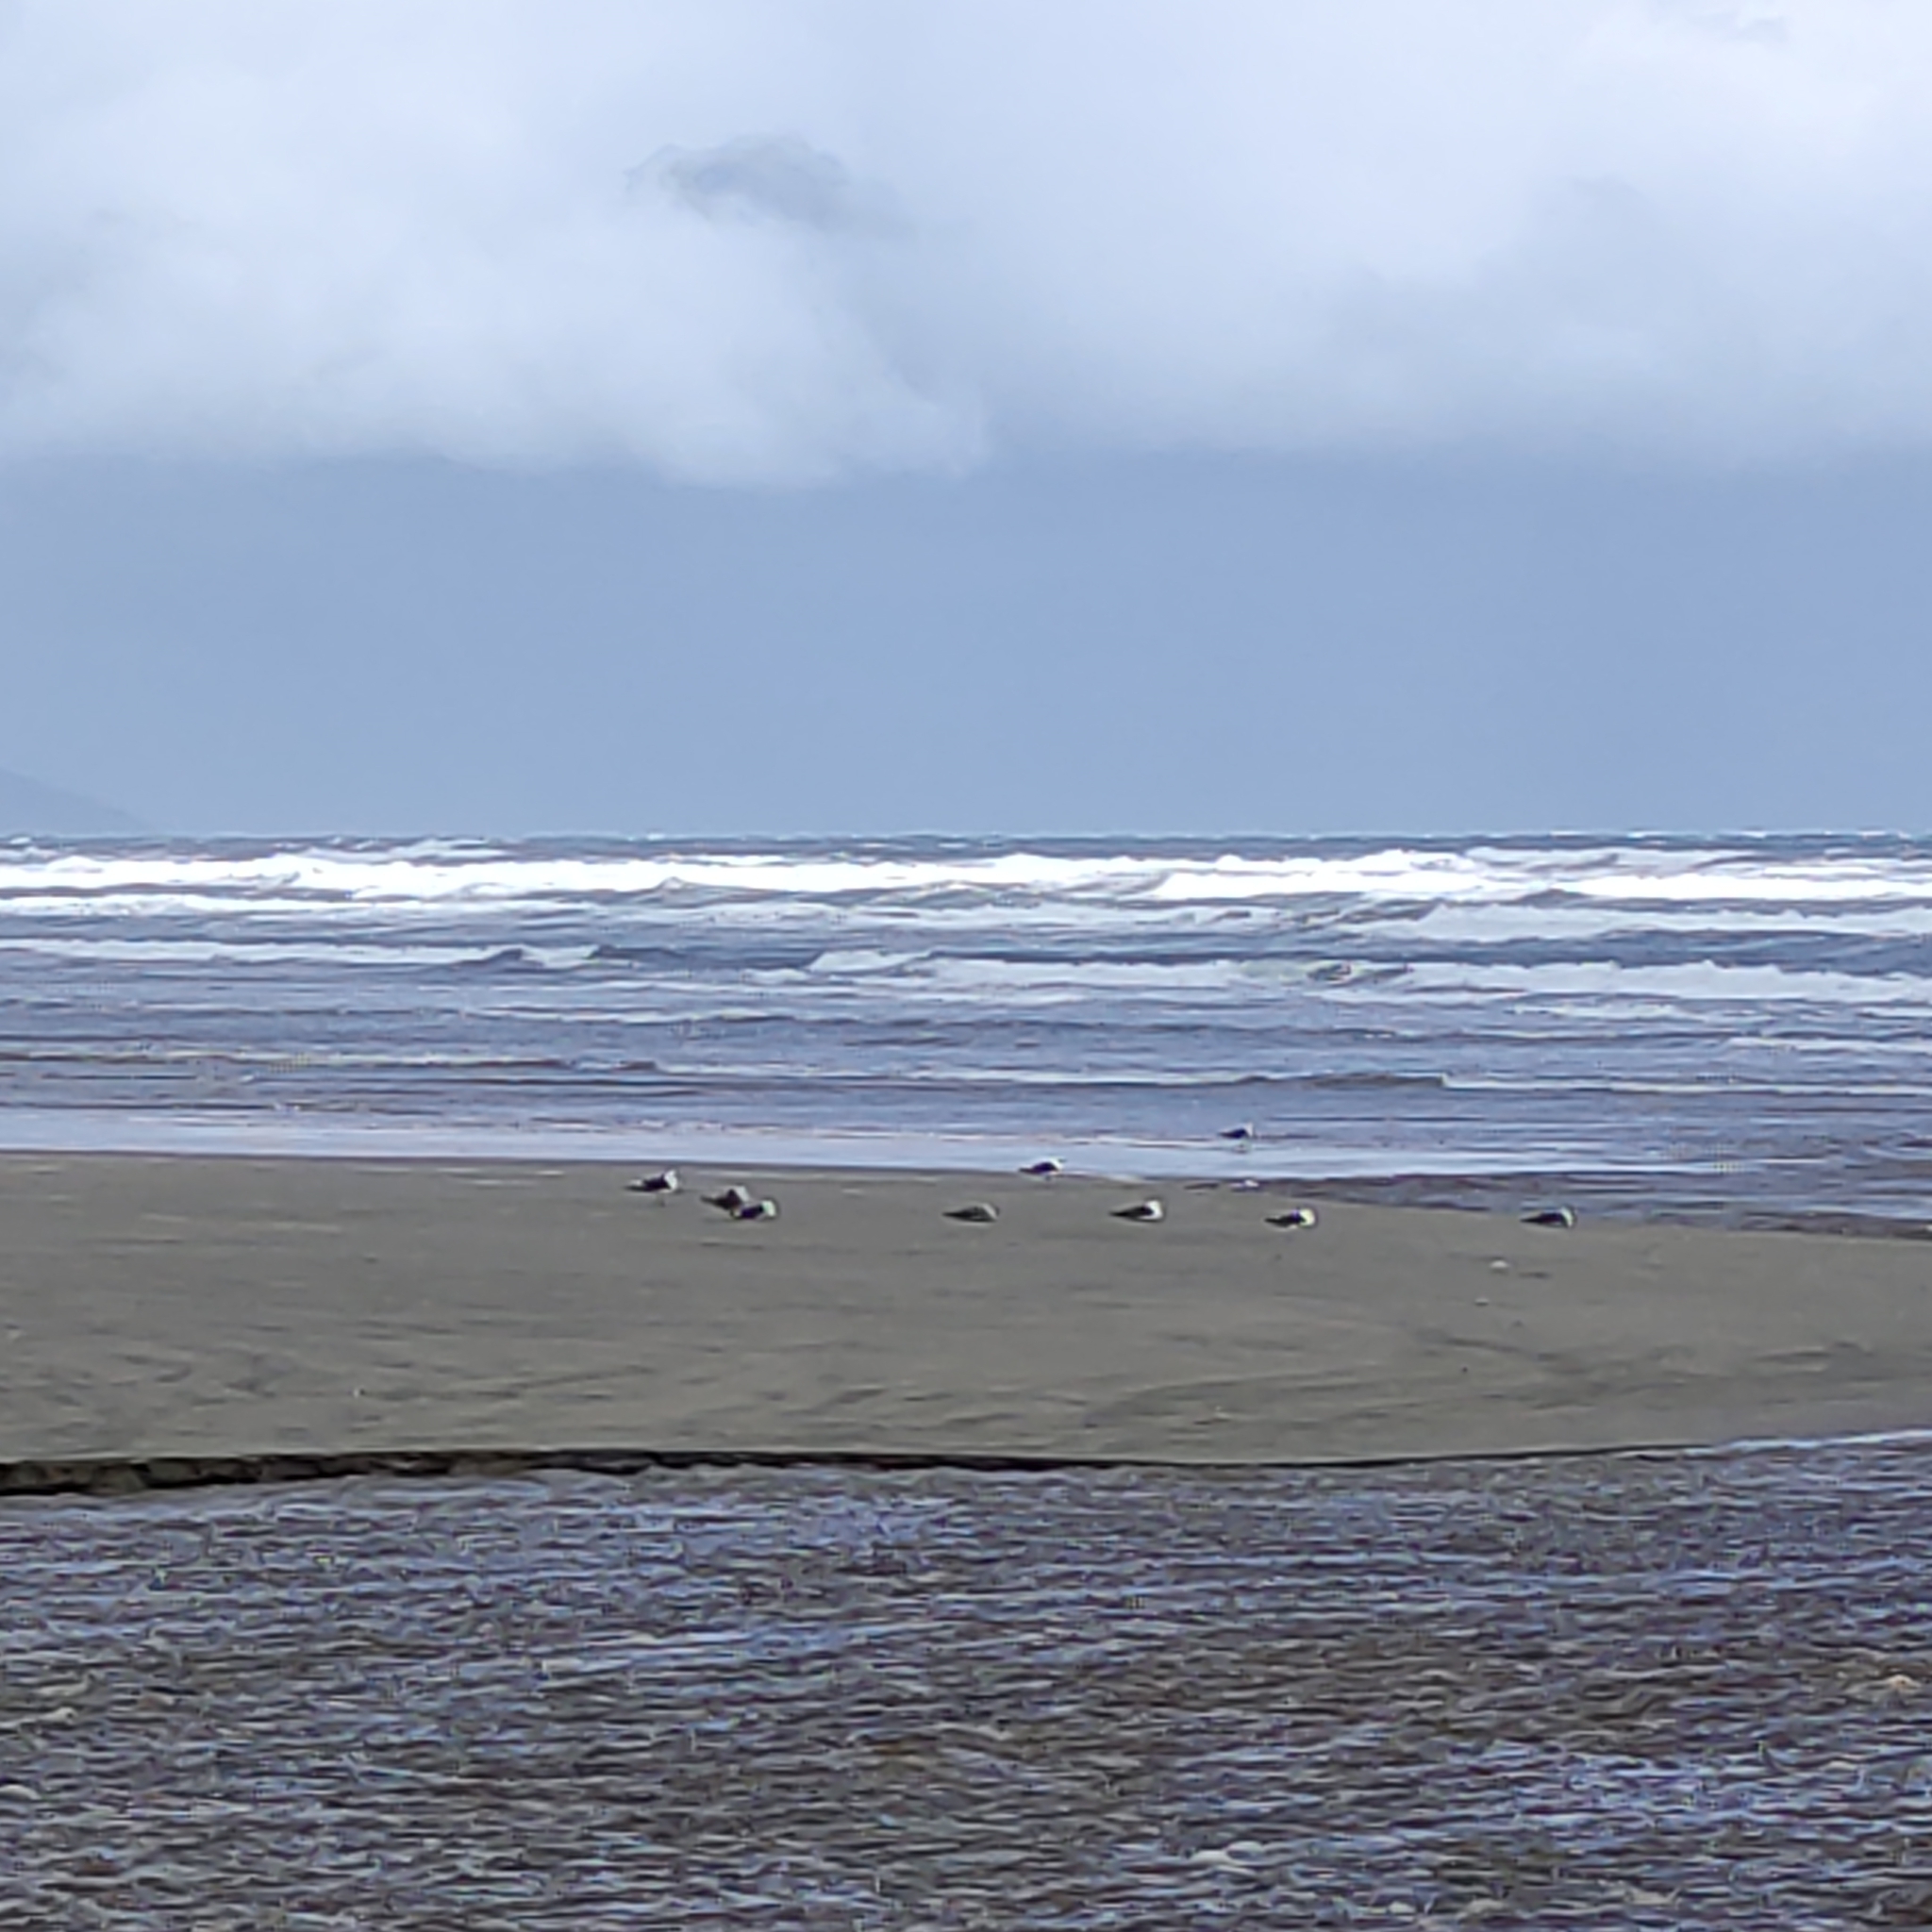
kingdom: Animalia
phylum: Chordata
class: Aves
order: Charadriiformes
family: Laridae
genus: Larus
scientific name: Larus dominicanus
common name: Kelp gull
